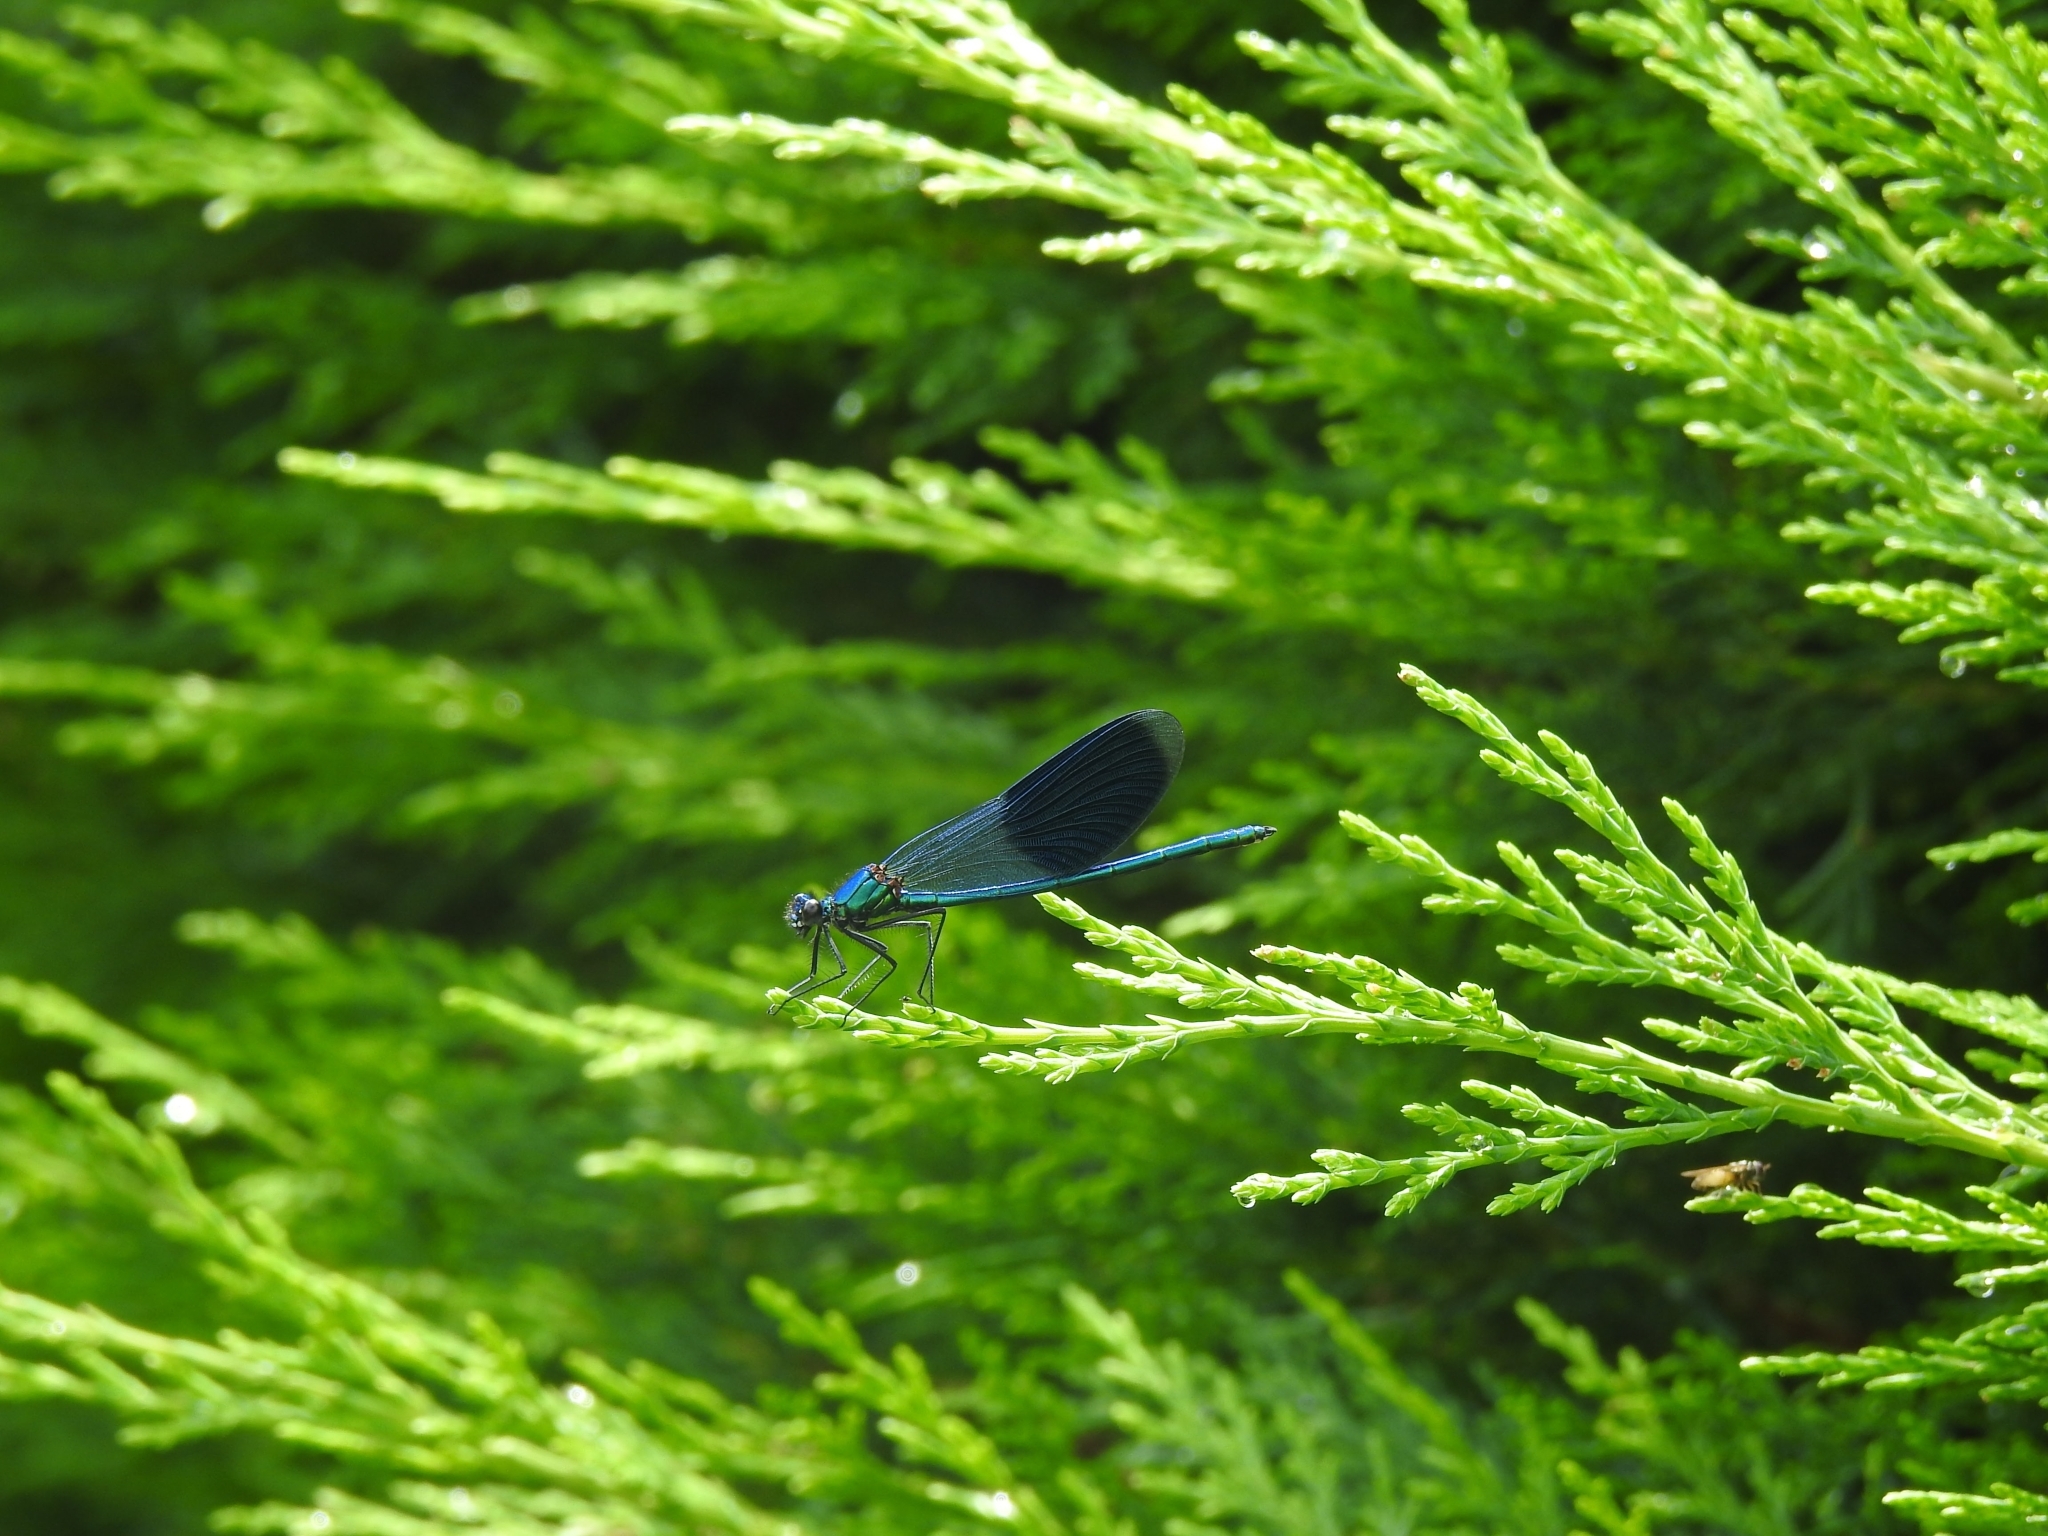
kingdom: Animalia
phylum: Arthropoda
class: Insecta
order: Odonata
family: Calopterygidae
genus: Calopteryx
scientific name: Calopteryx splendens
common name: Banded demoiselle
